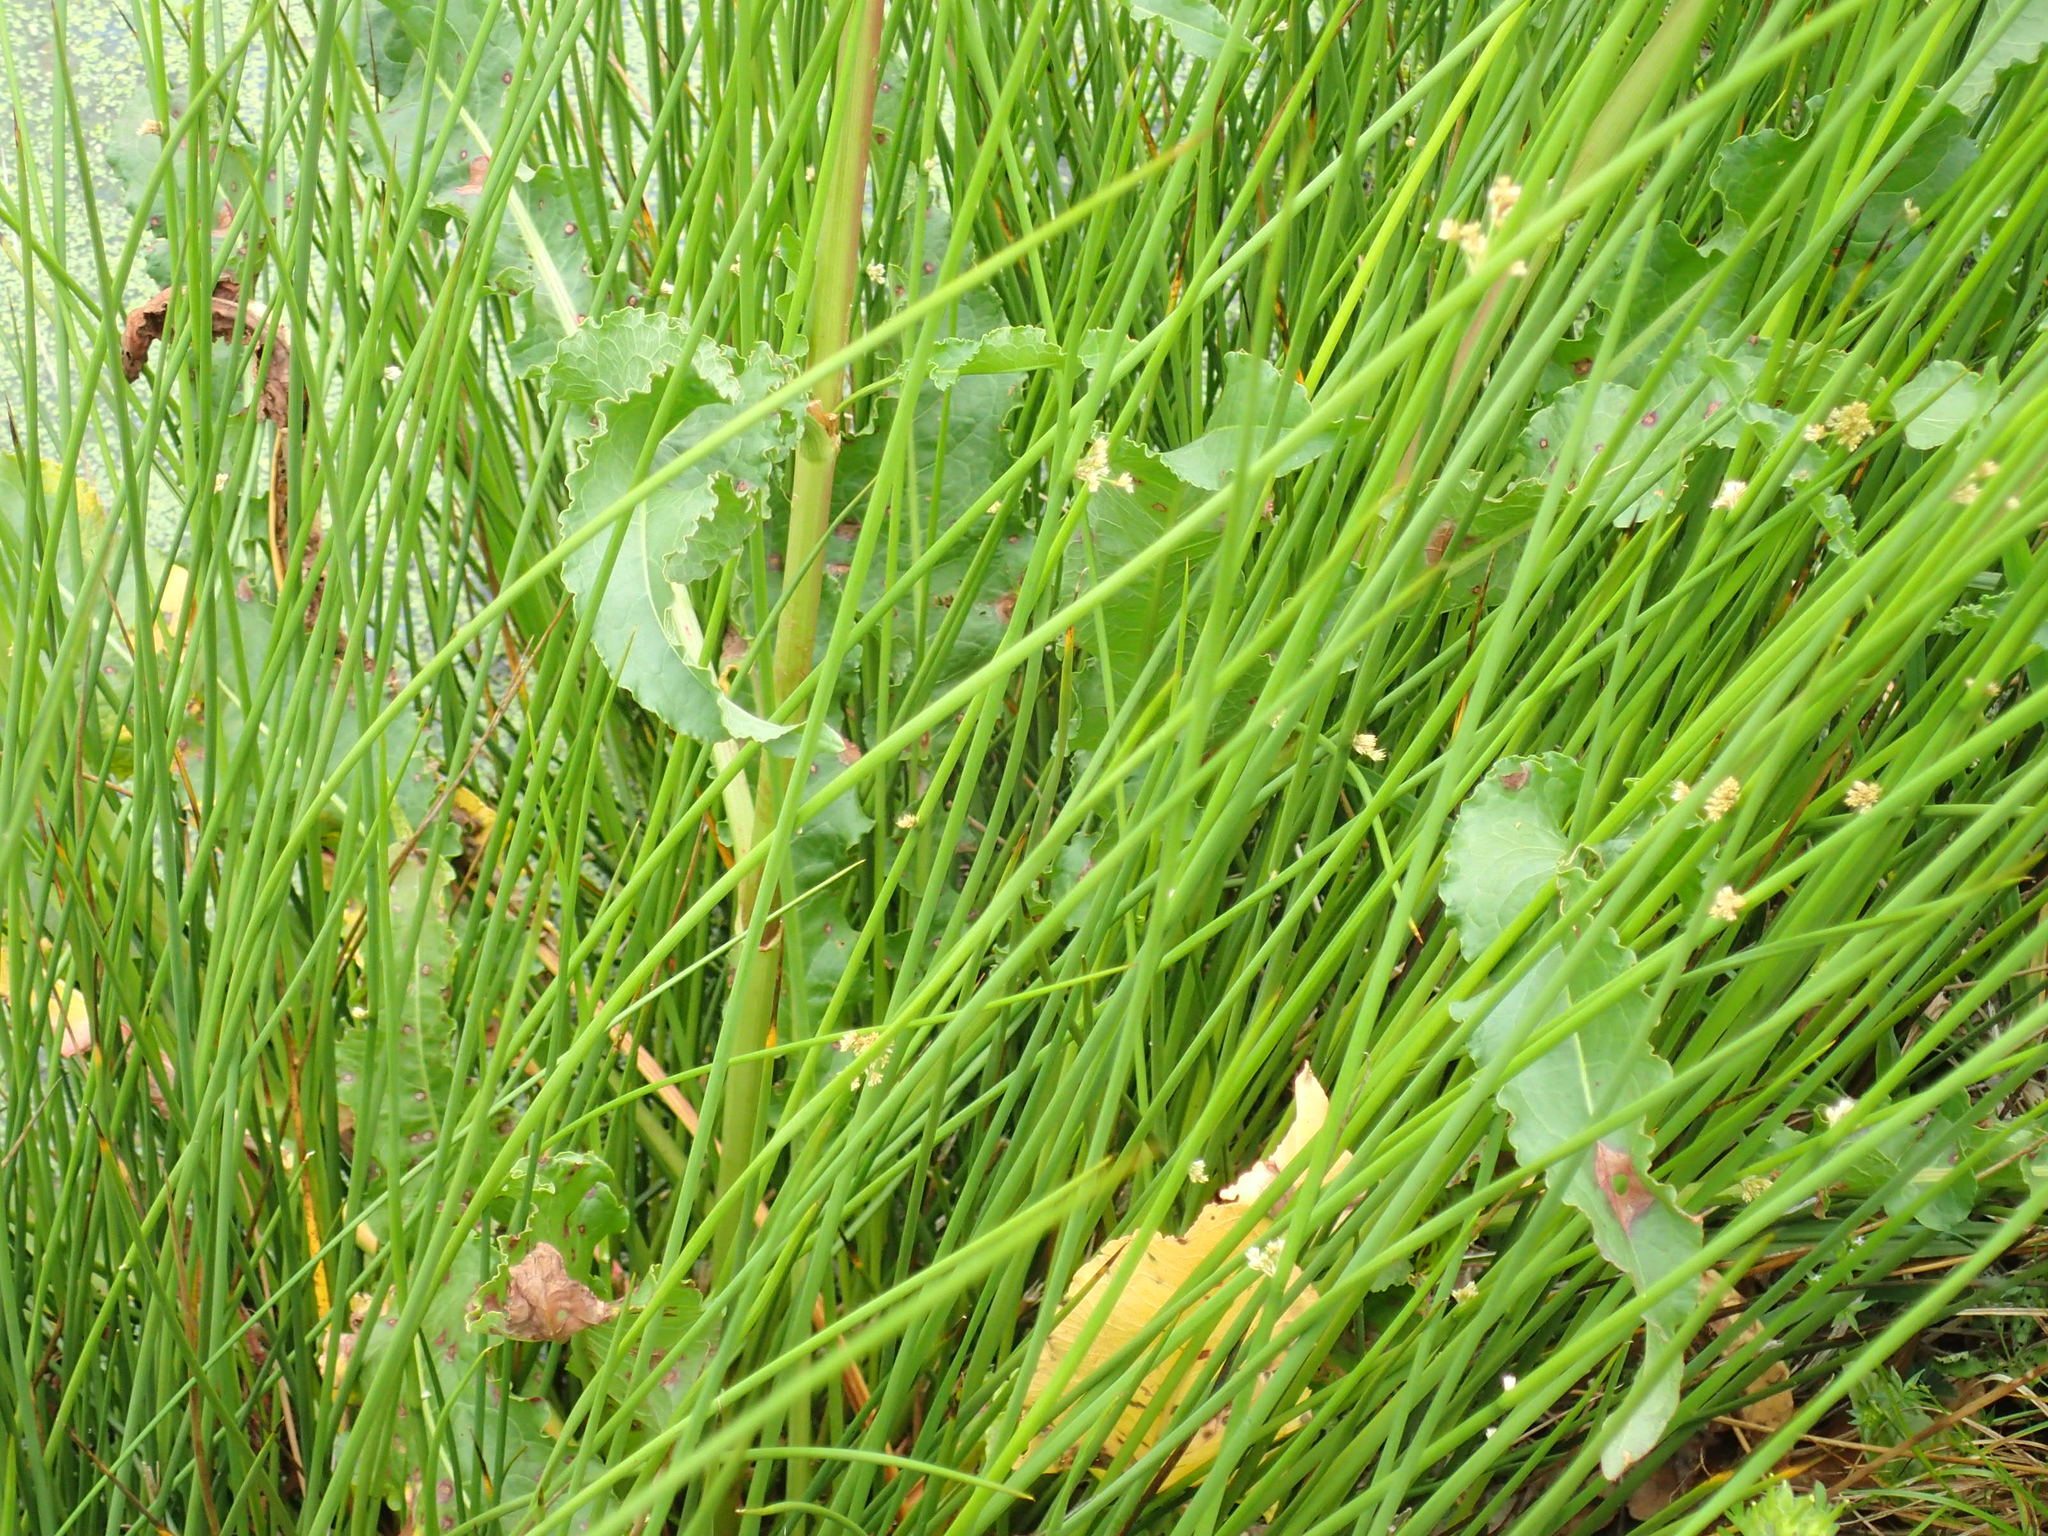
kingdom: Plantae
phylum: Tracheophyta
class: Liliopsida
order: Poales
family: Juncaceae
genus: Juncus
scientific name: Juncus effusus
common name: Soft rush
